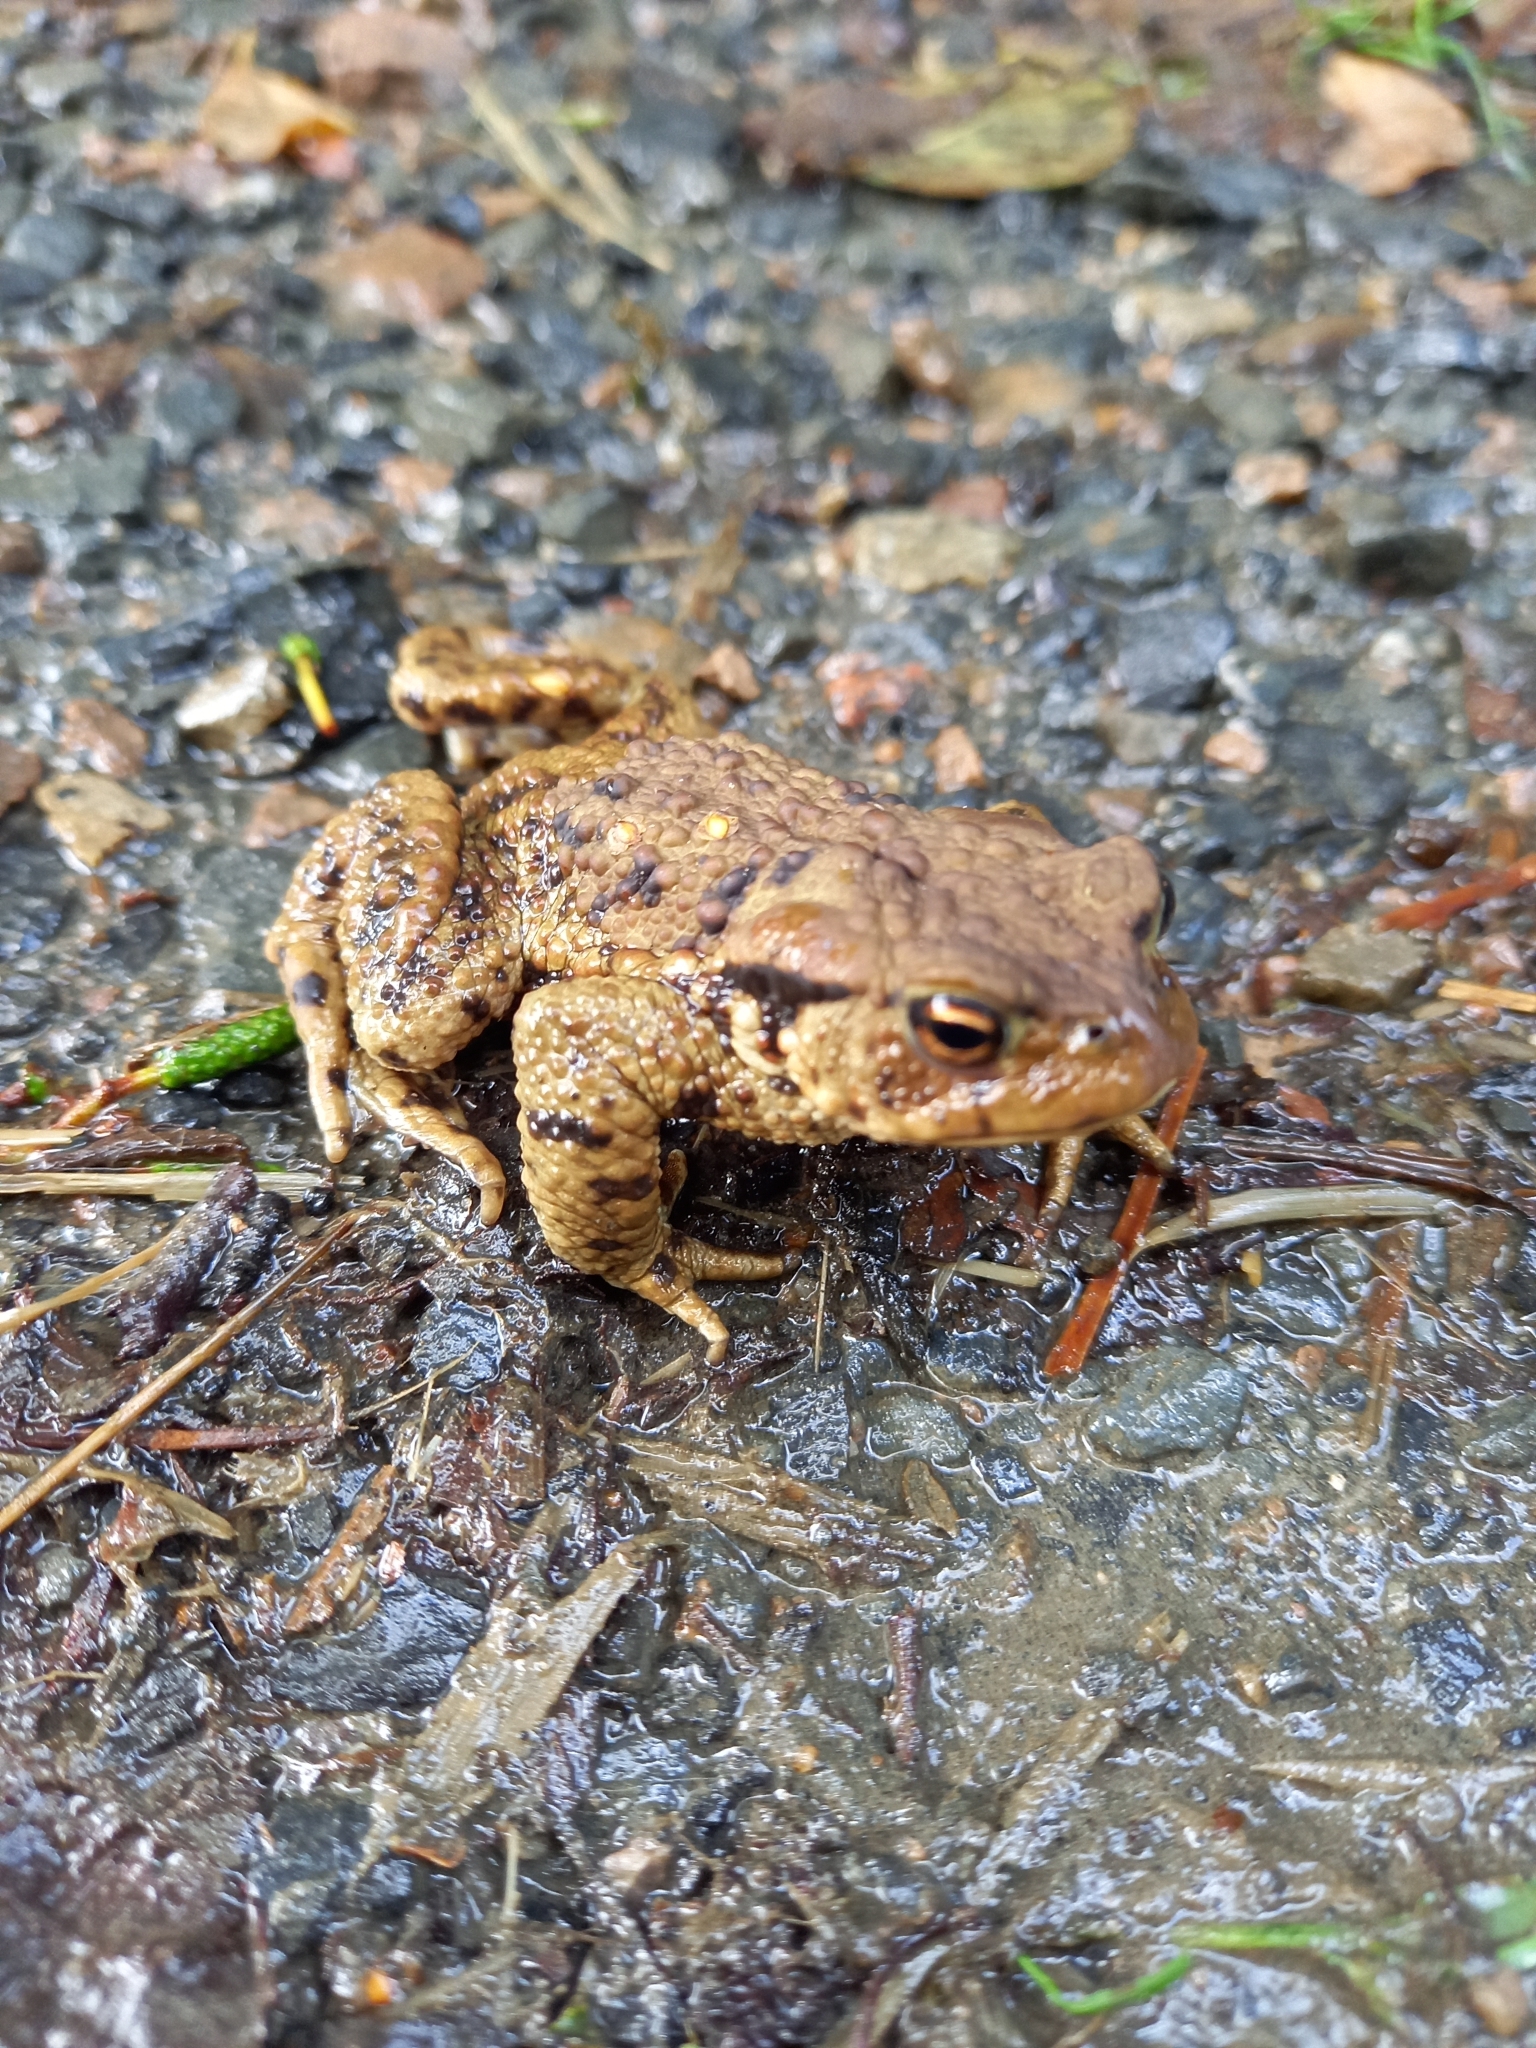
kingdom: Animalia
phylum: Chordata
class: Amphibia
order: Anura
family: Bufonidae
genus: Bufo
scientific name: Bufo bufo
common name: Common toad
